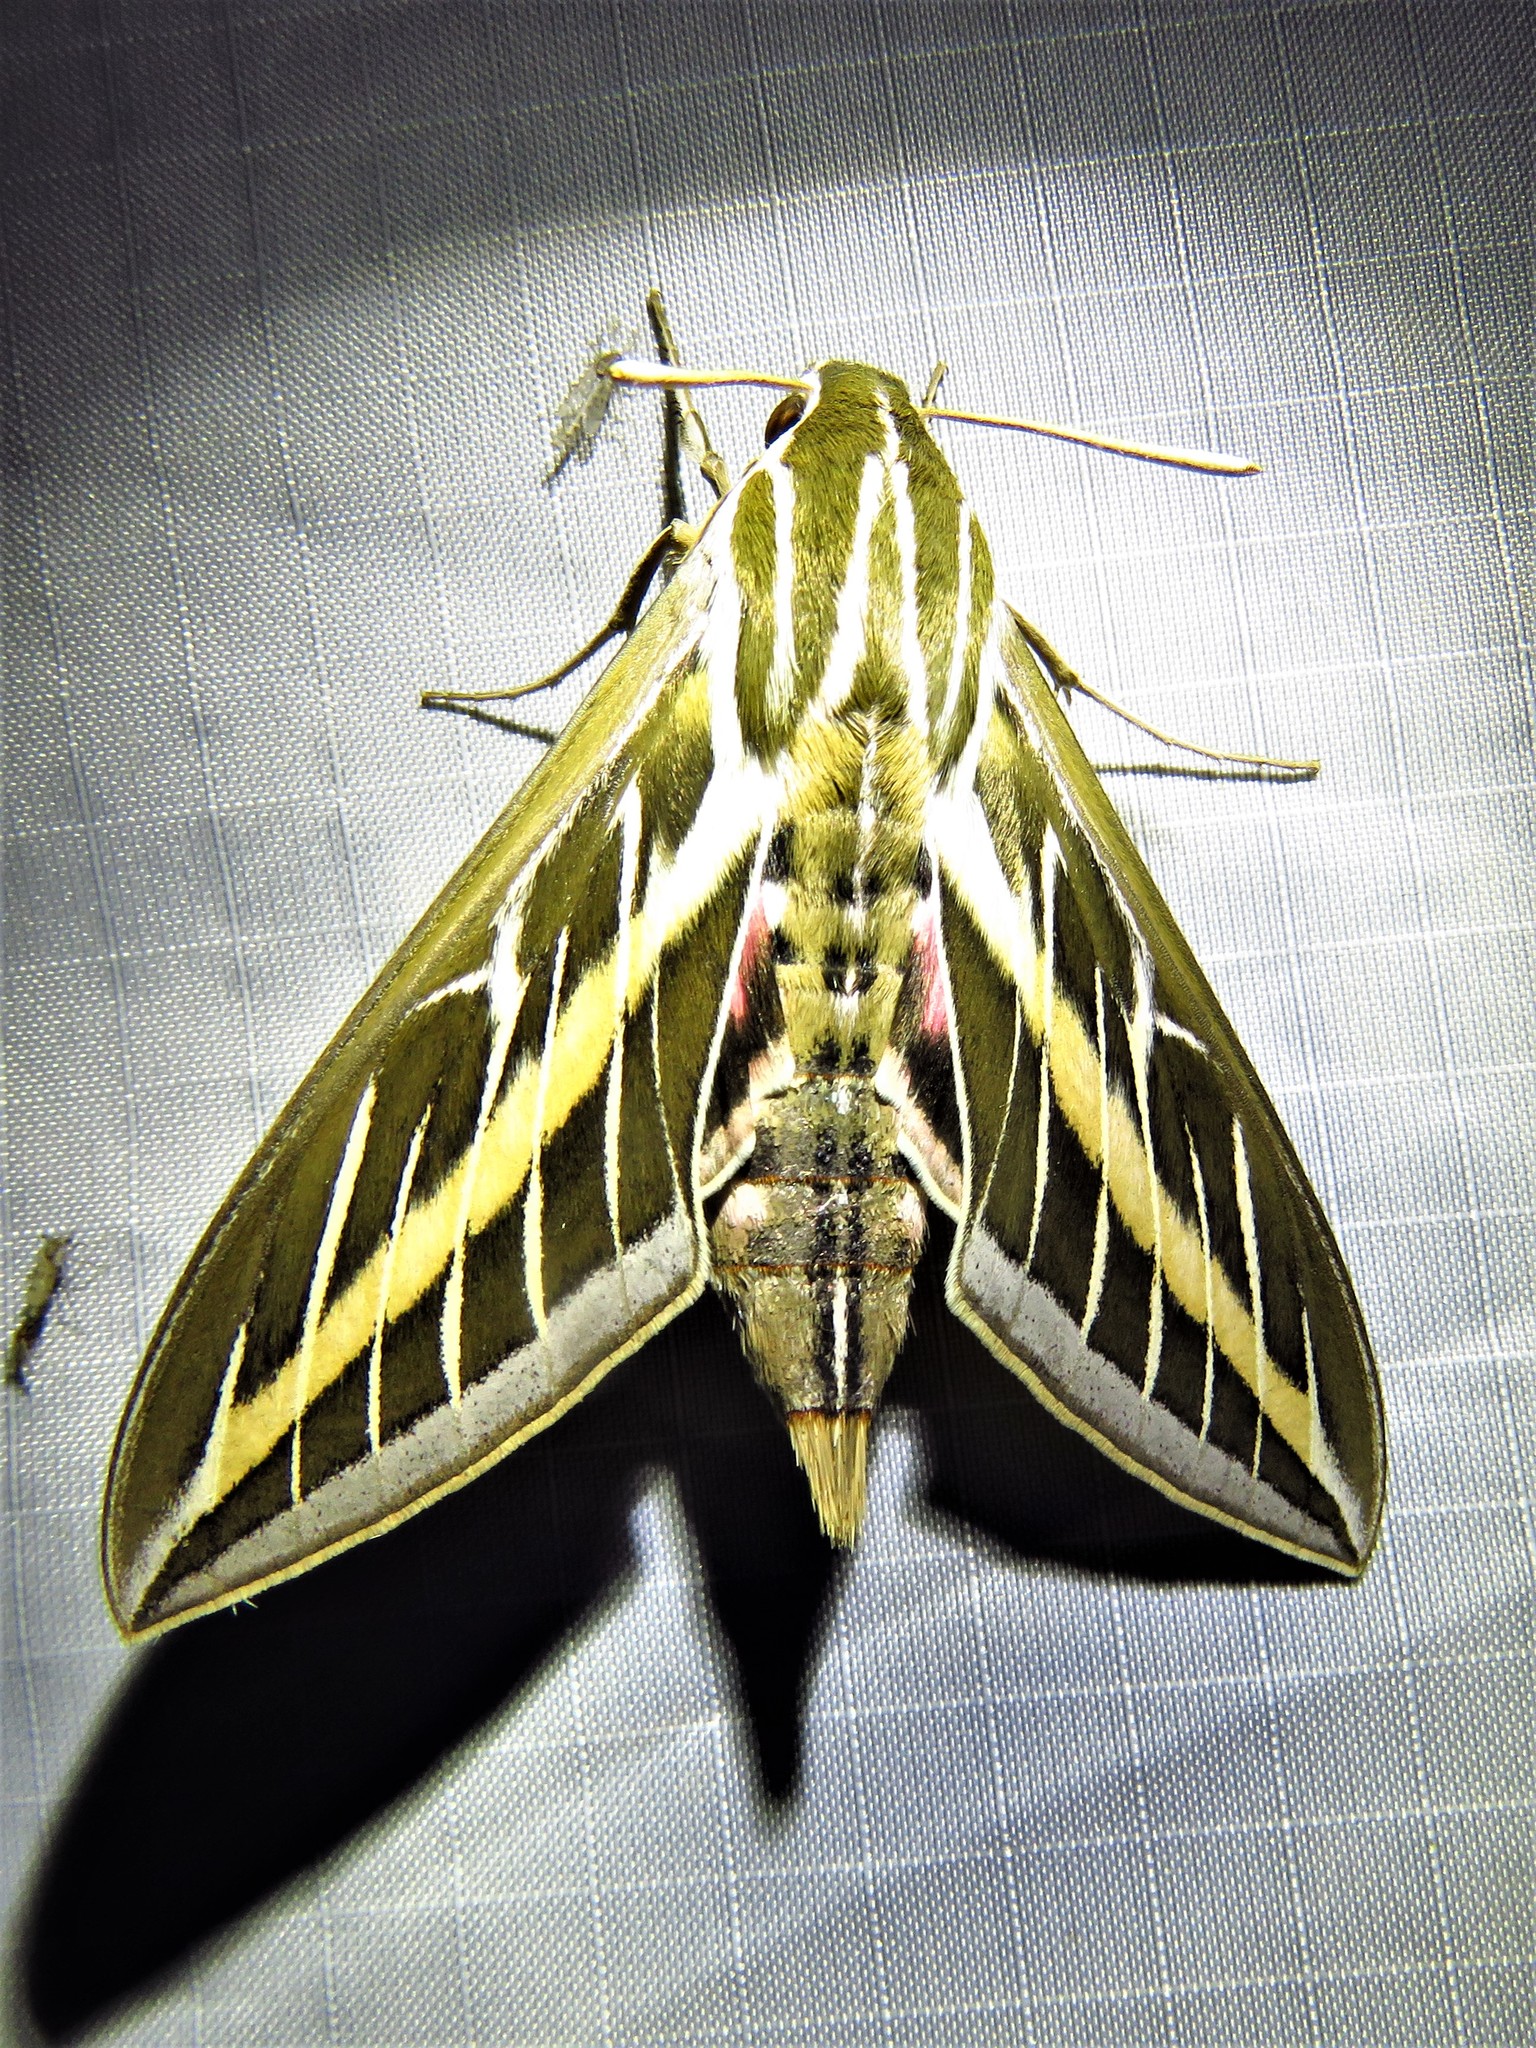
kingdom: Animalia
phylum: Arthropoda
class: Insecta
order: Lepidoptera
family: Sphingidae
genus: Hyles
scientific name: Hyles lineata
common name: White-lined sphinx
